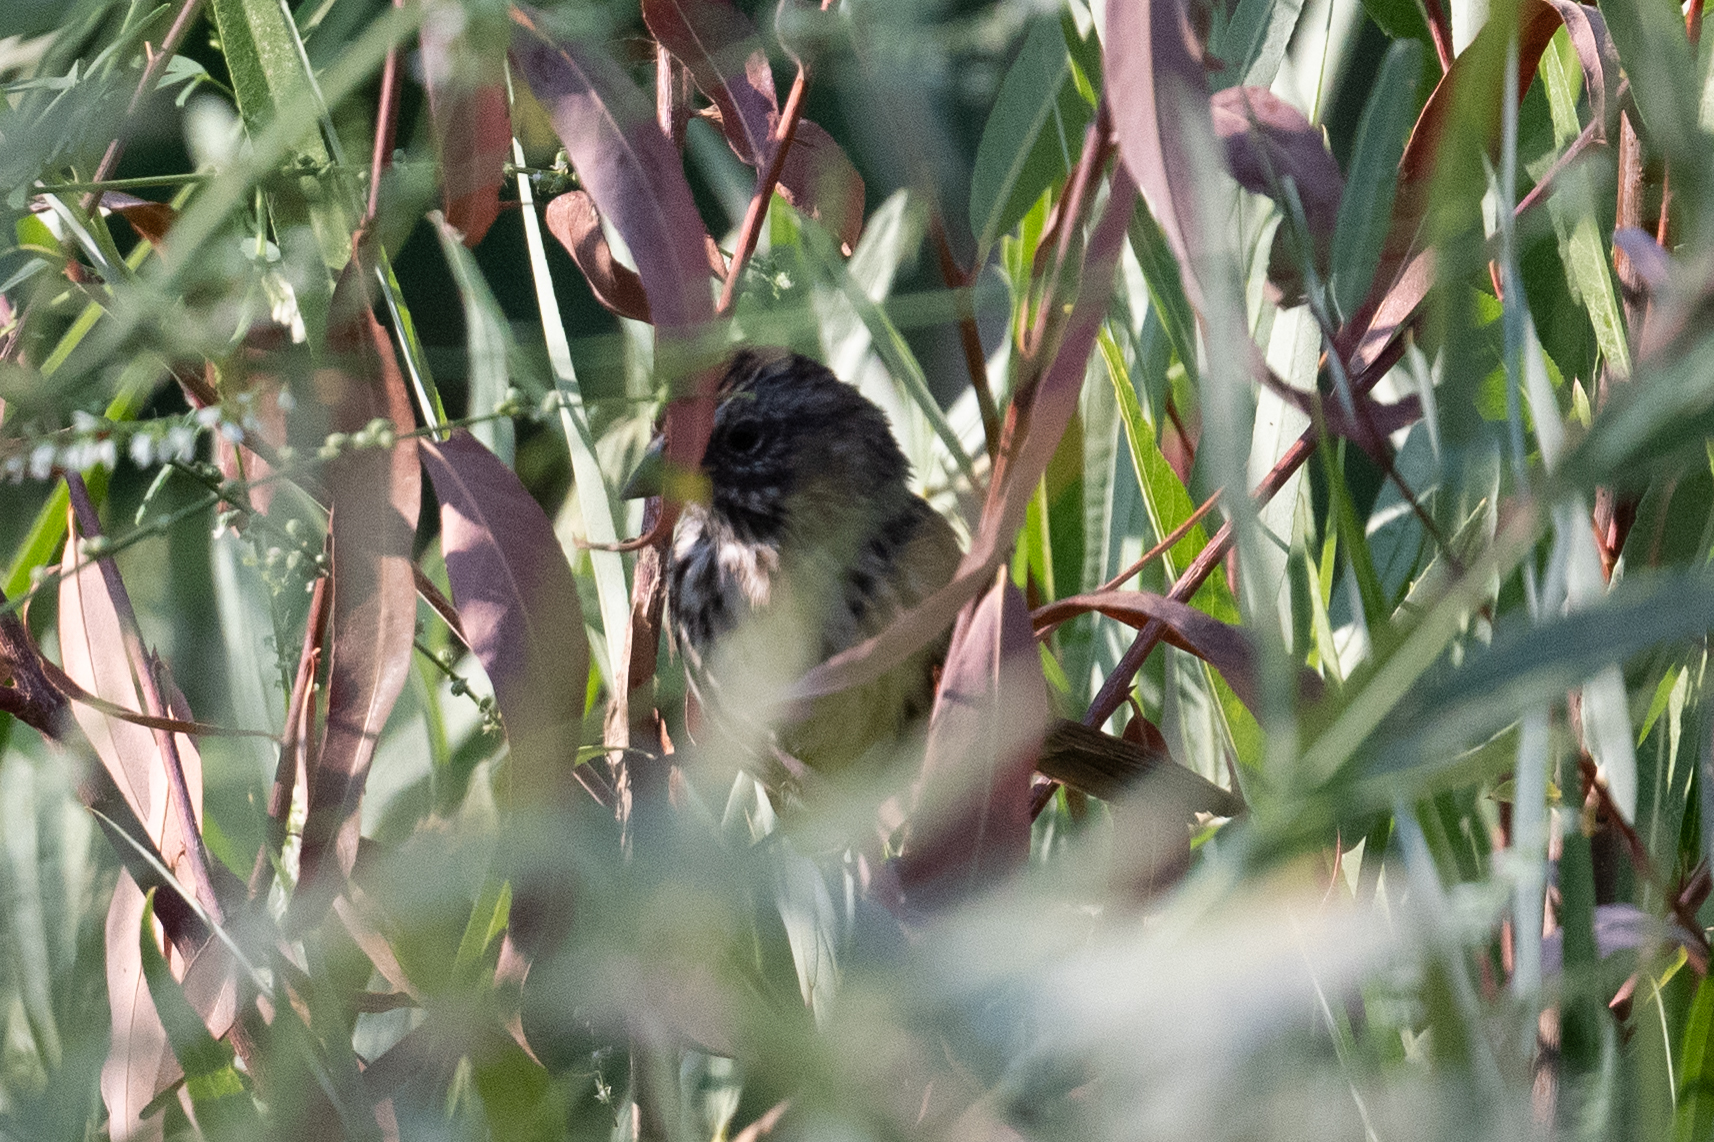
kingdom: Animalia
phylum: Chordata
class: Aves
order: Passeriformes
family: Passerellidae
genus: Melospiza
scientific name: Melospiza melodia
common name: Song sparrow
